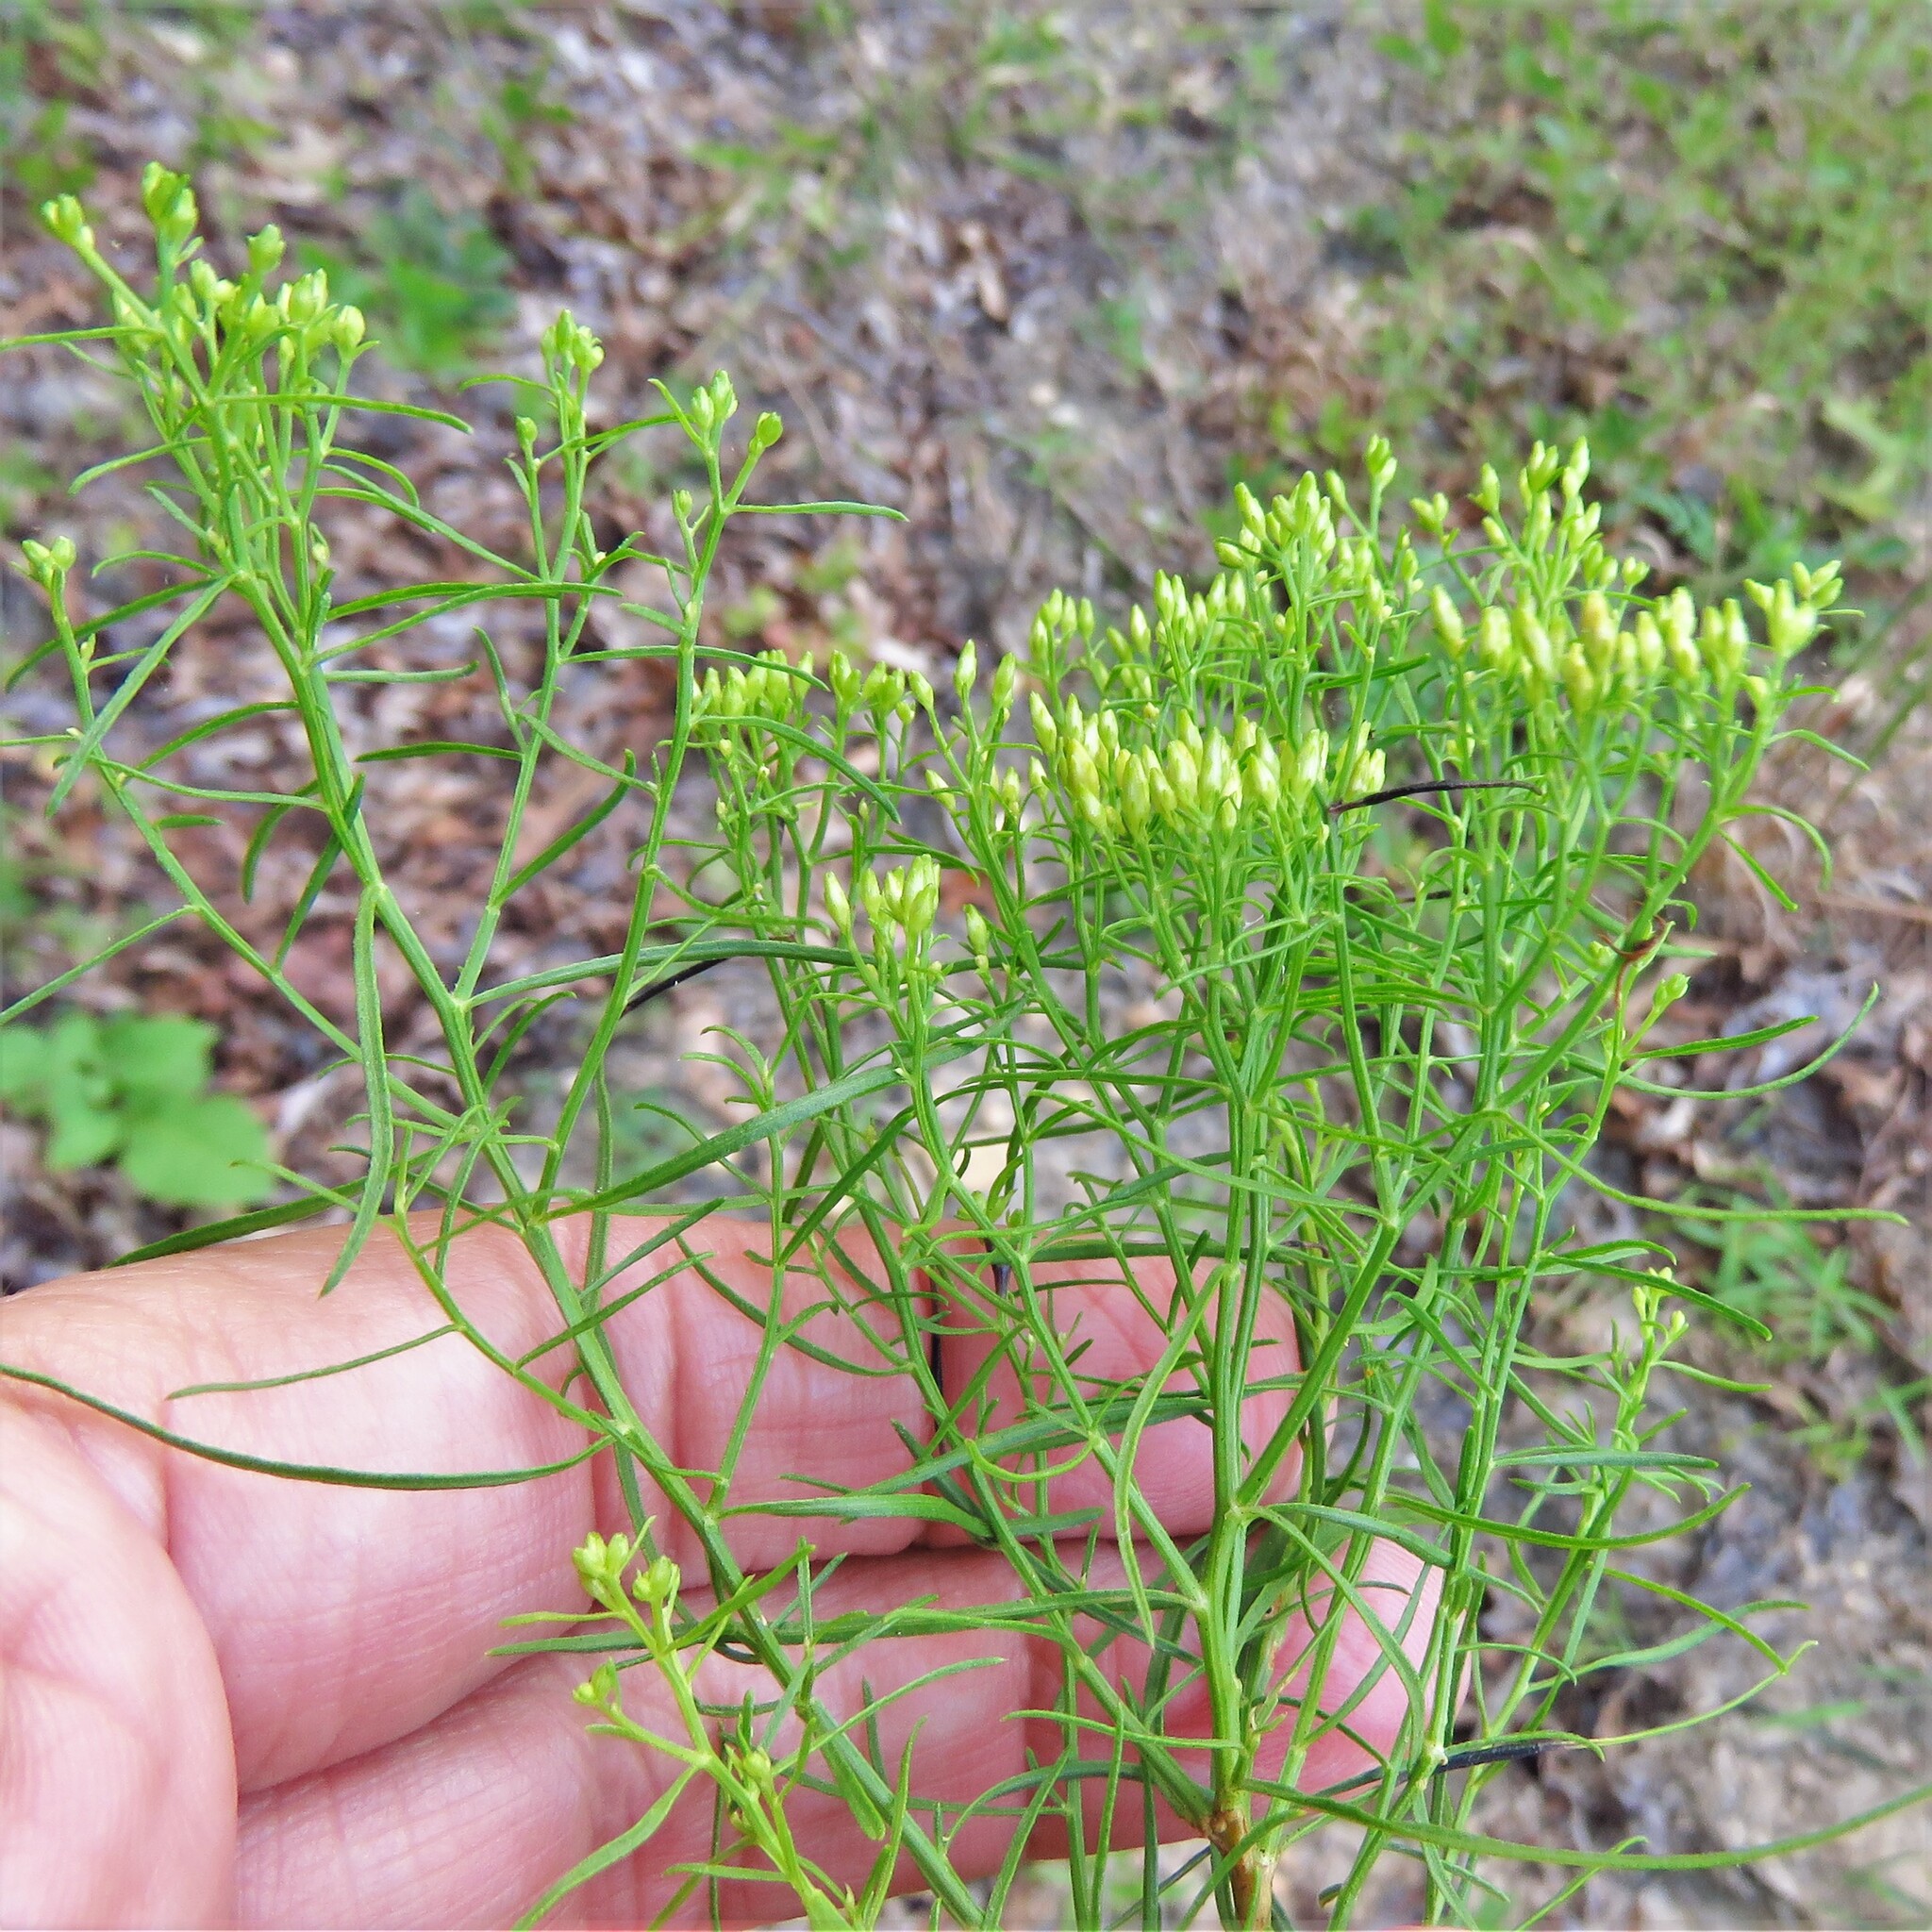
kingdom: Plantae
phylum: Tracheophyta
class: Magnoliopsida
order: Asterales
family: Asteraceae
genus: Euthamia
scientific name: Euthamia caroliniana
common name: Coastal plain goldentop
